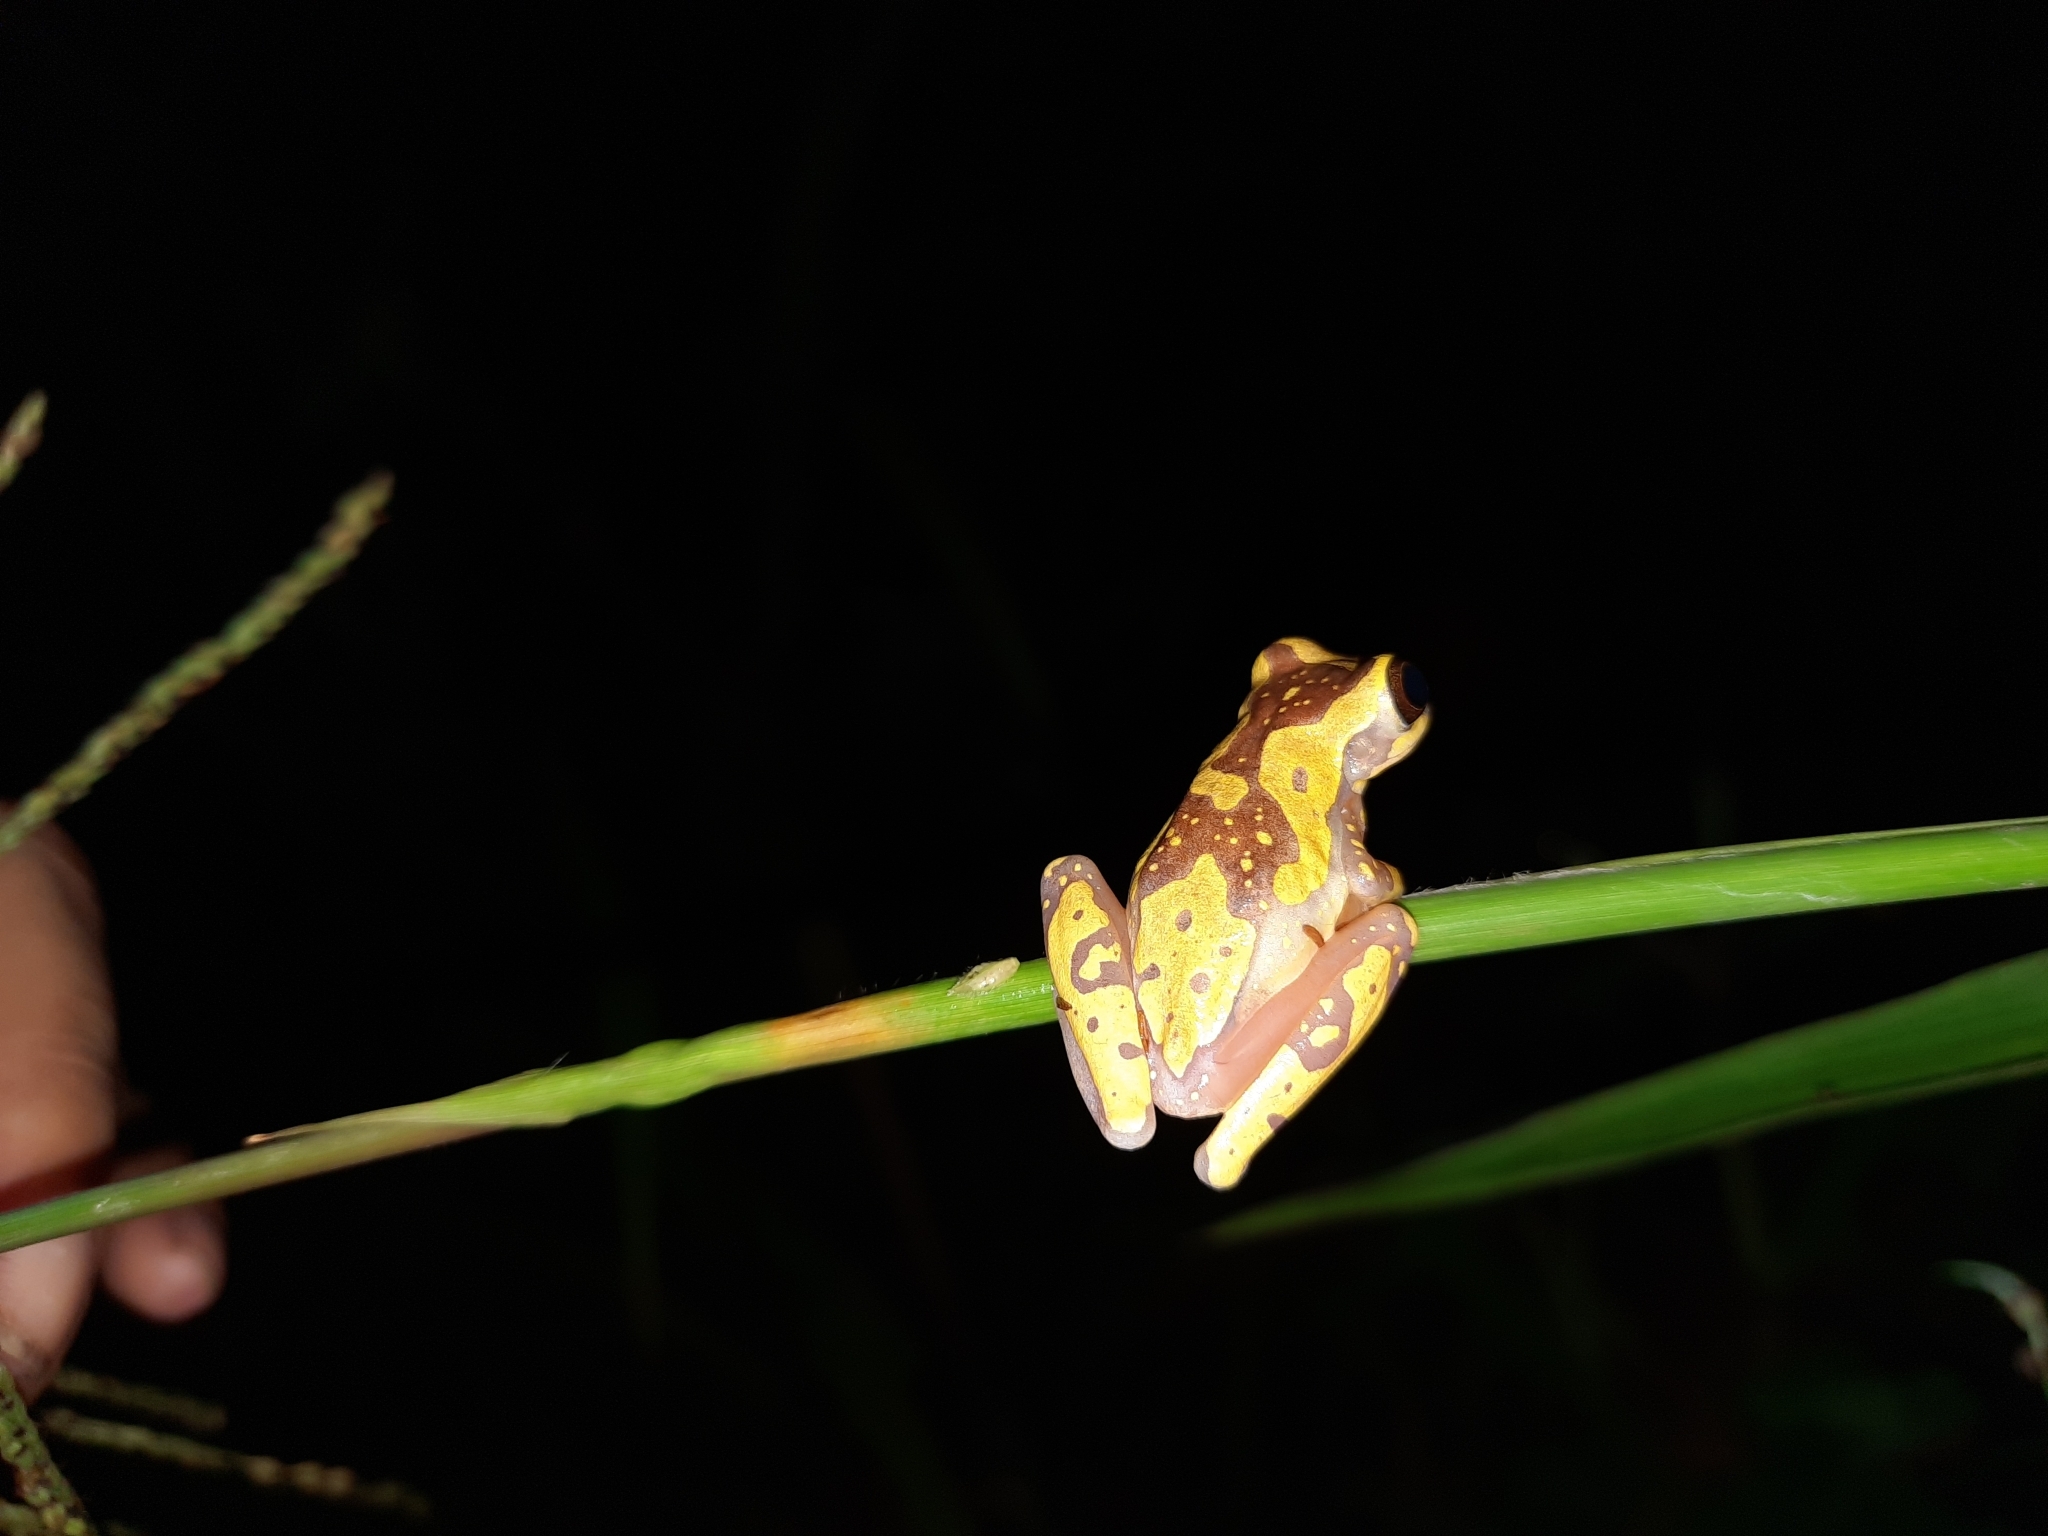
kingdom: Animalia
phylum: Chordata
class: Amphibia
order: Anura
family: Hylidae
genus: Dendropsophus
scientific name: Dendropsophus ebraccatus
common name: Hourglass treefrog
